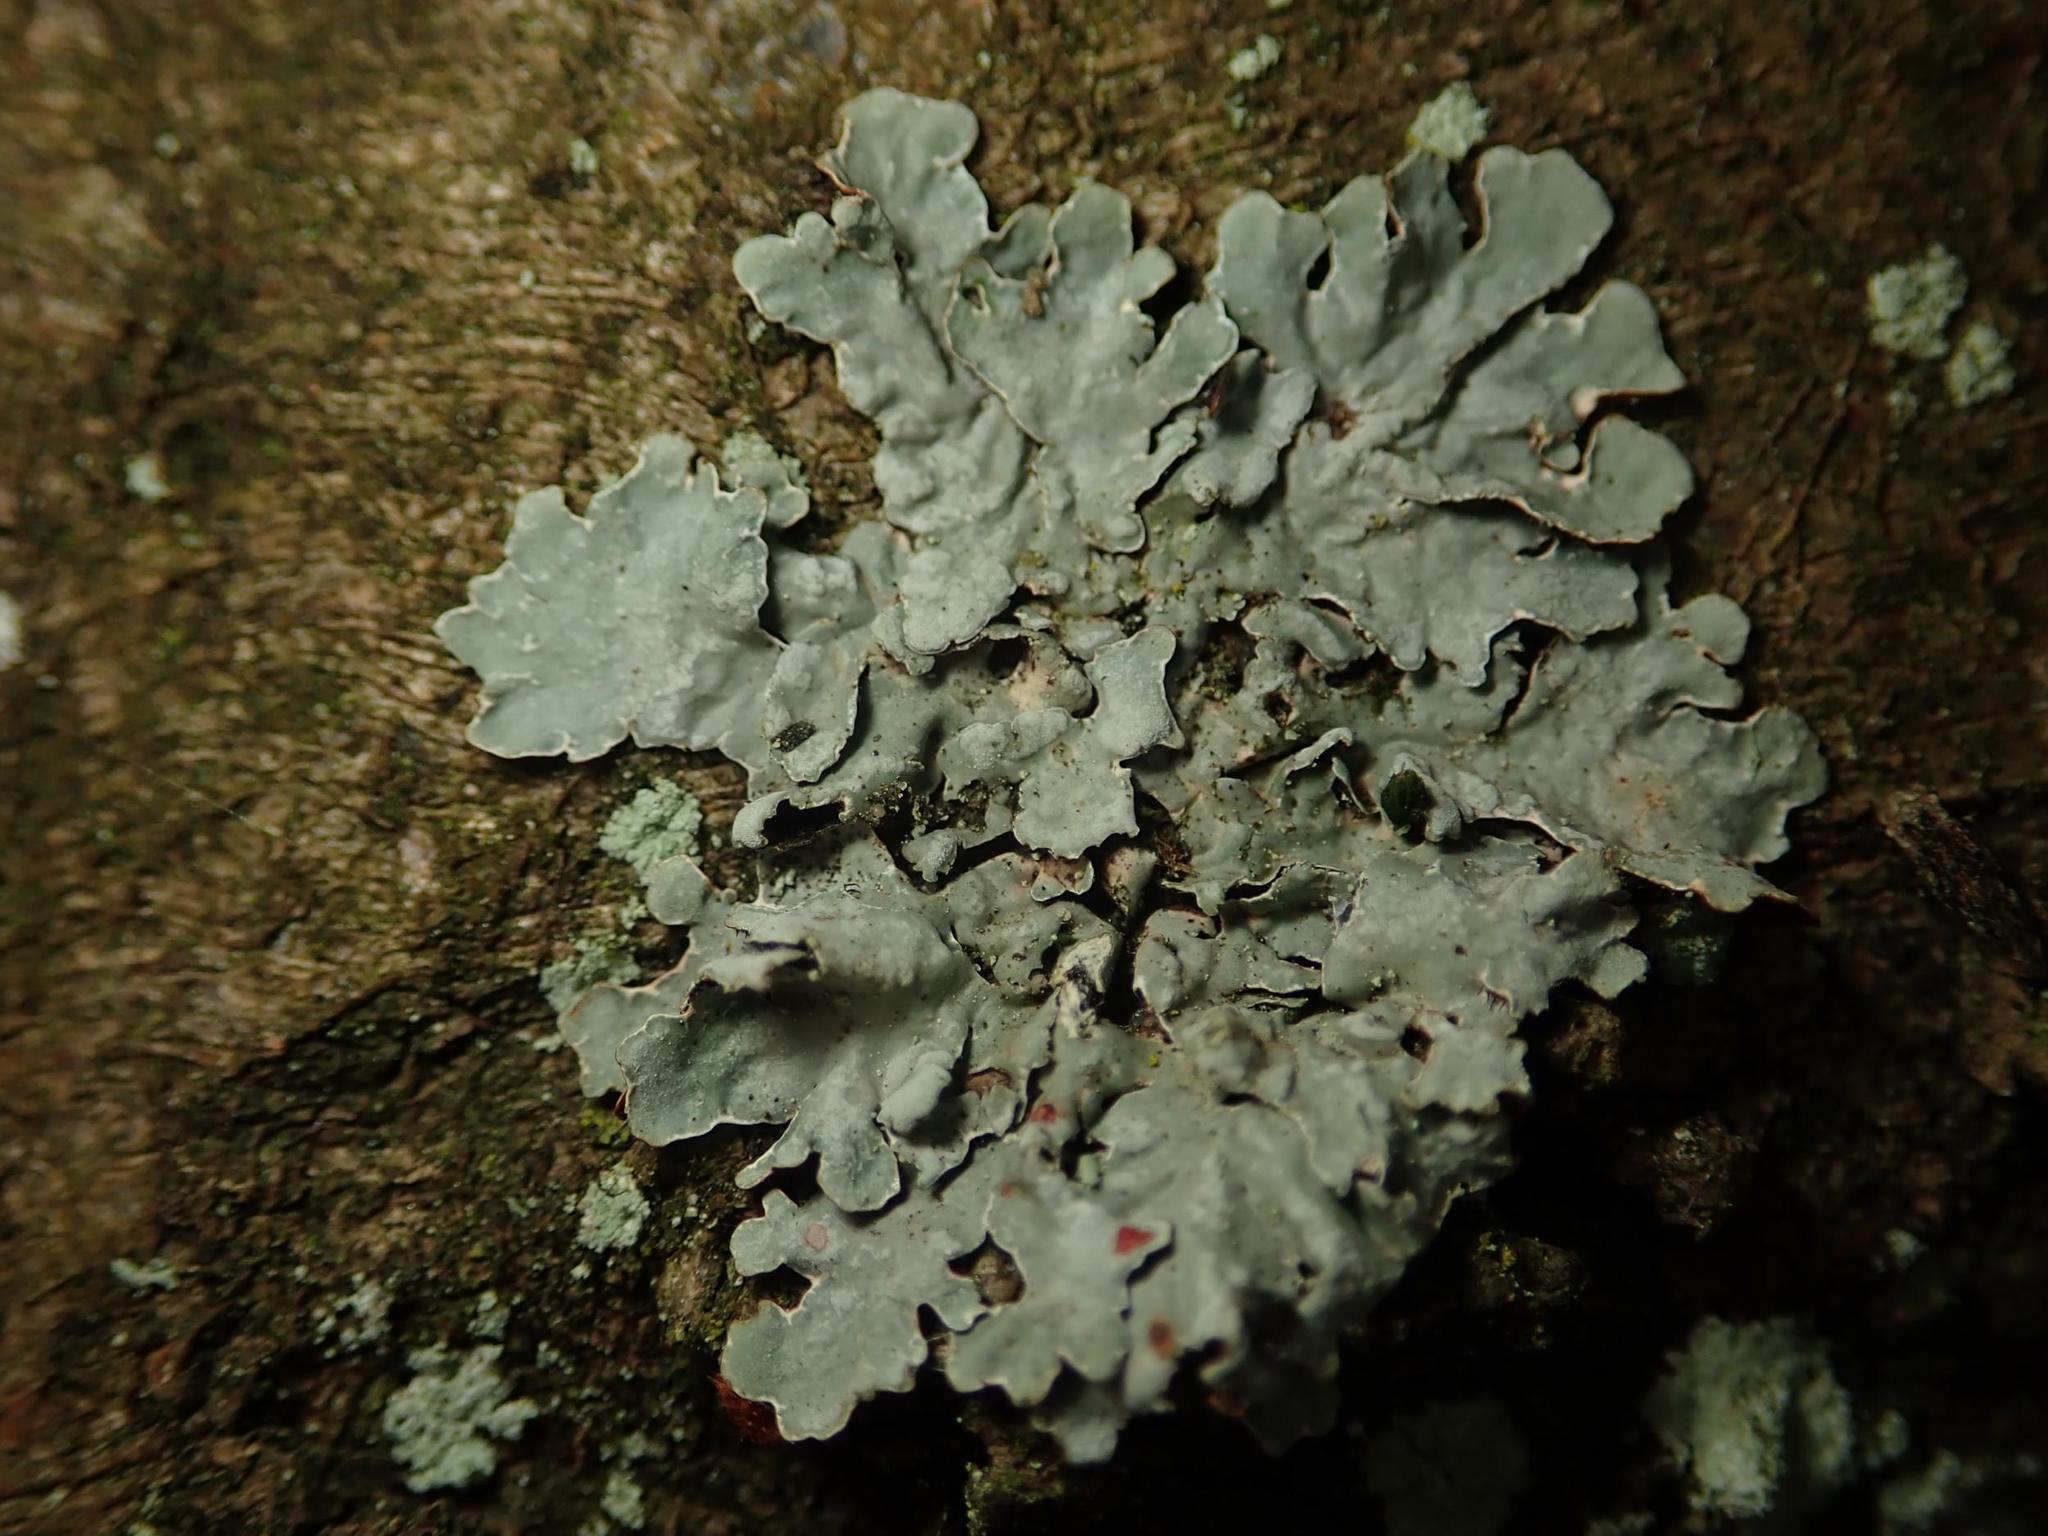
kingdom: Fungi
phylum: Ascomycota
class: Lecanoromycetes
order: Lecanorales
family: Parmeliaceae
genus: Parmelia
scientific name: Parmelia sulcata
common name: Netted shield lichen
